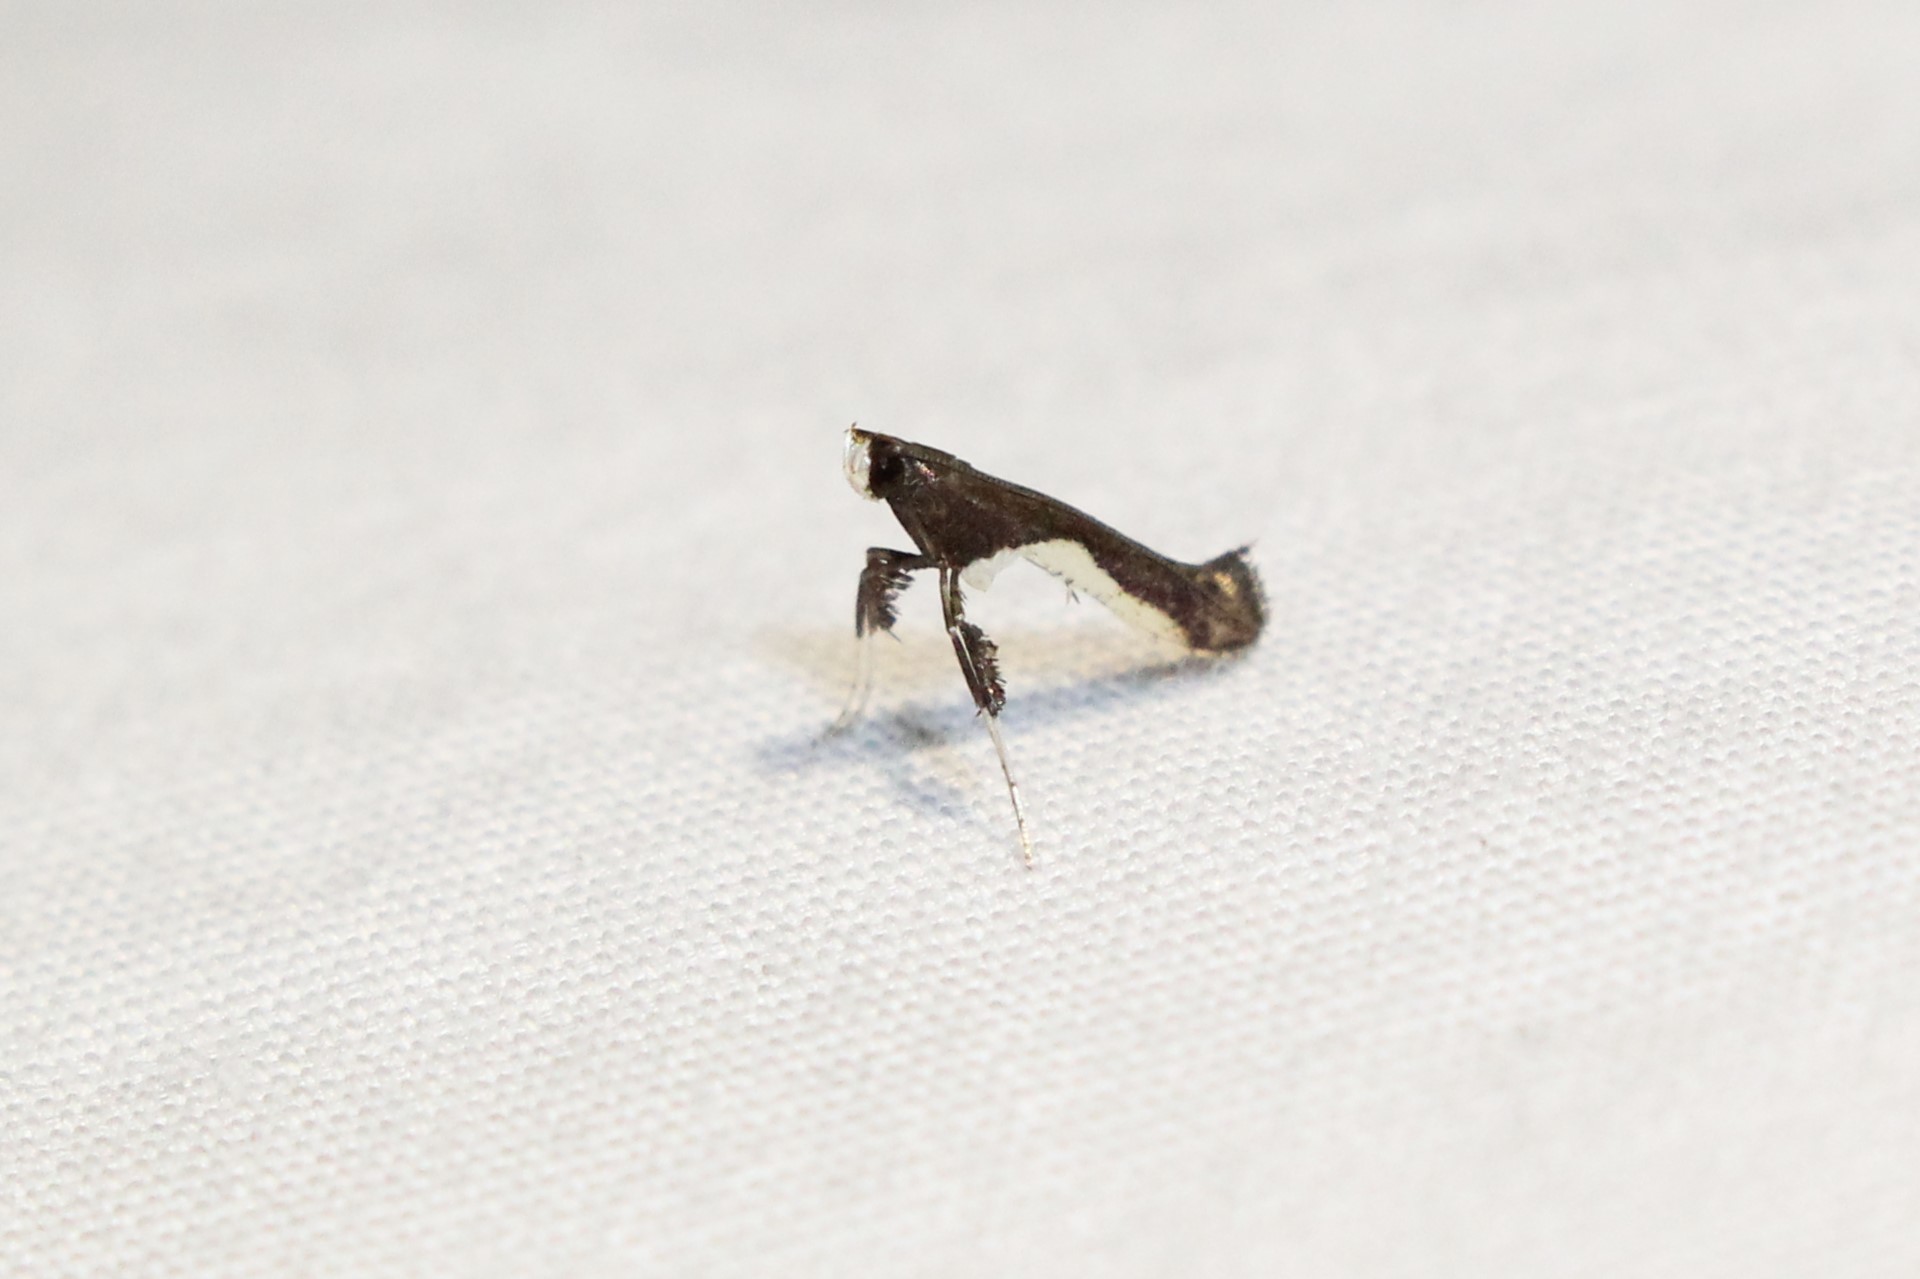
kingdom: Animalia
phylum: Arthropoda
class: Insecta
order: Lepidoptera
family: Gracillariidae
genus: Caloptilia
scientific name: Caloptilia belfragella
